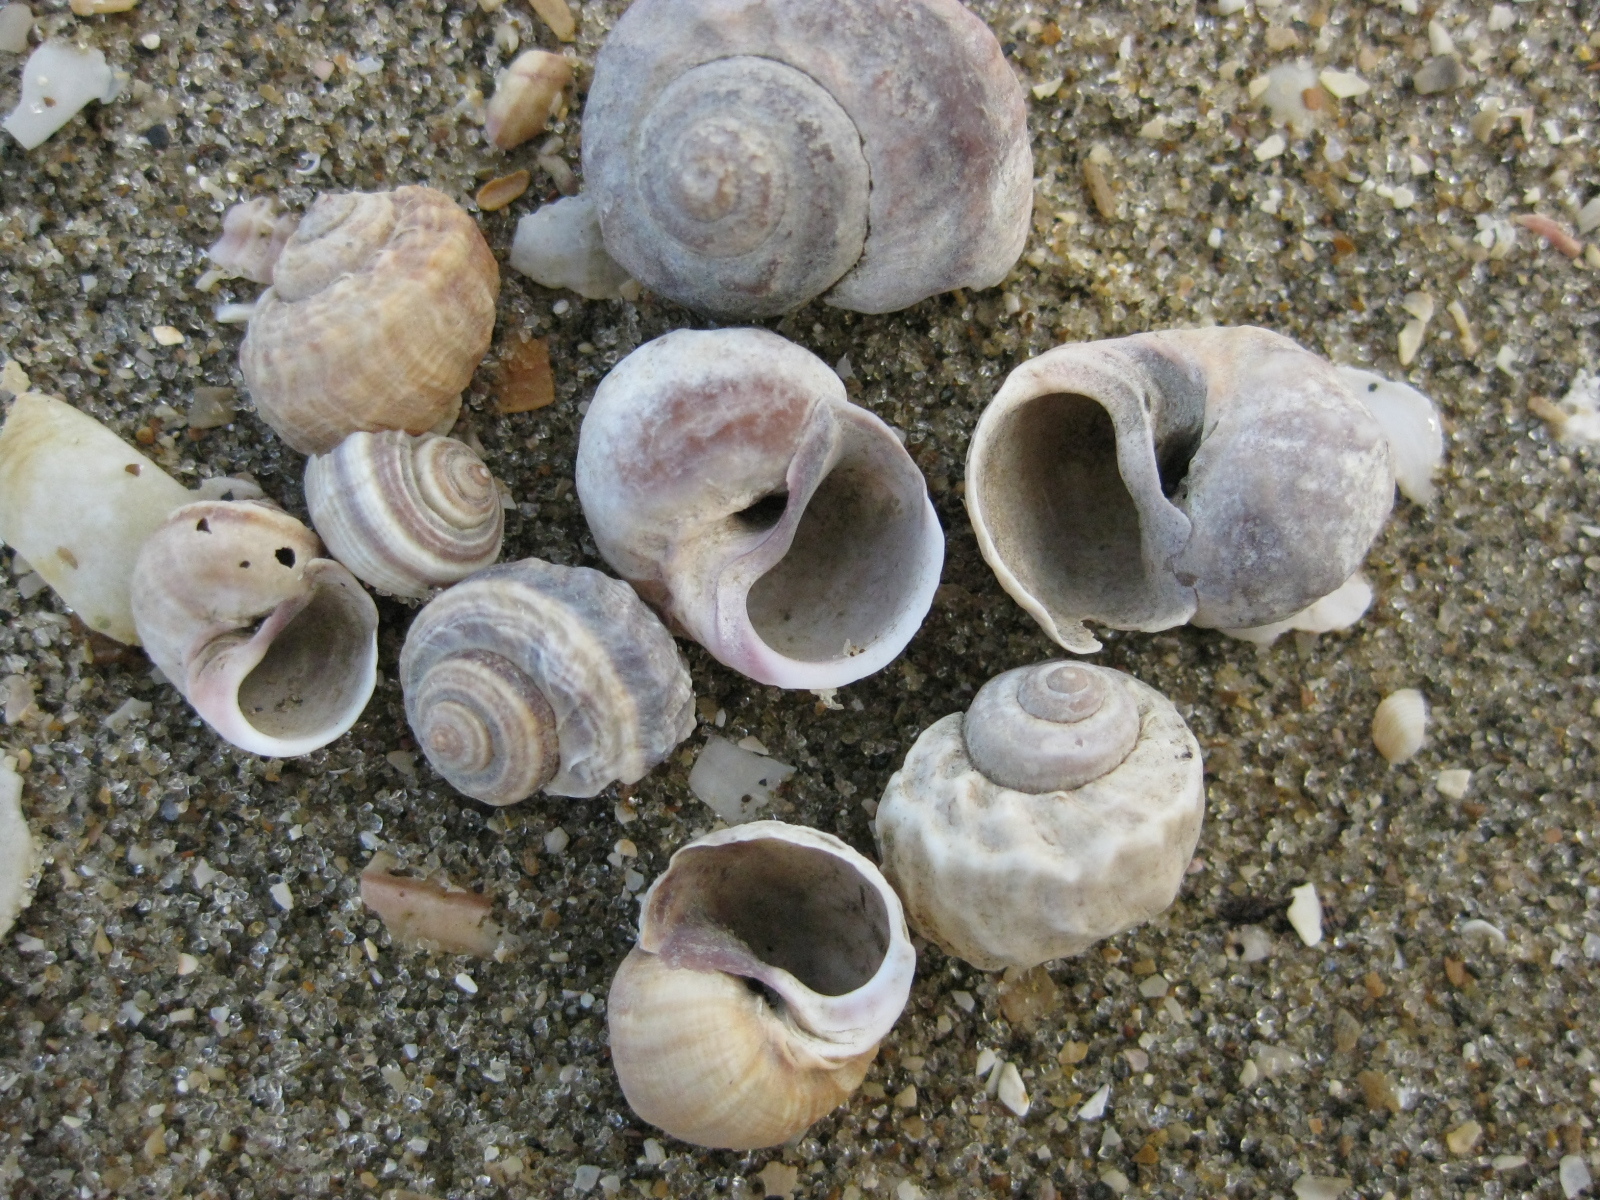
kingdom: Animalia
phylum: Mollusca
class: Gastropoda
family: Amphibolidae
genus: Amphibola
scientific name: Amphibola crenata
